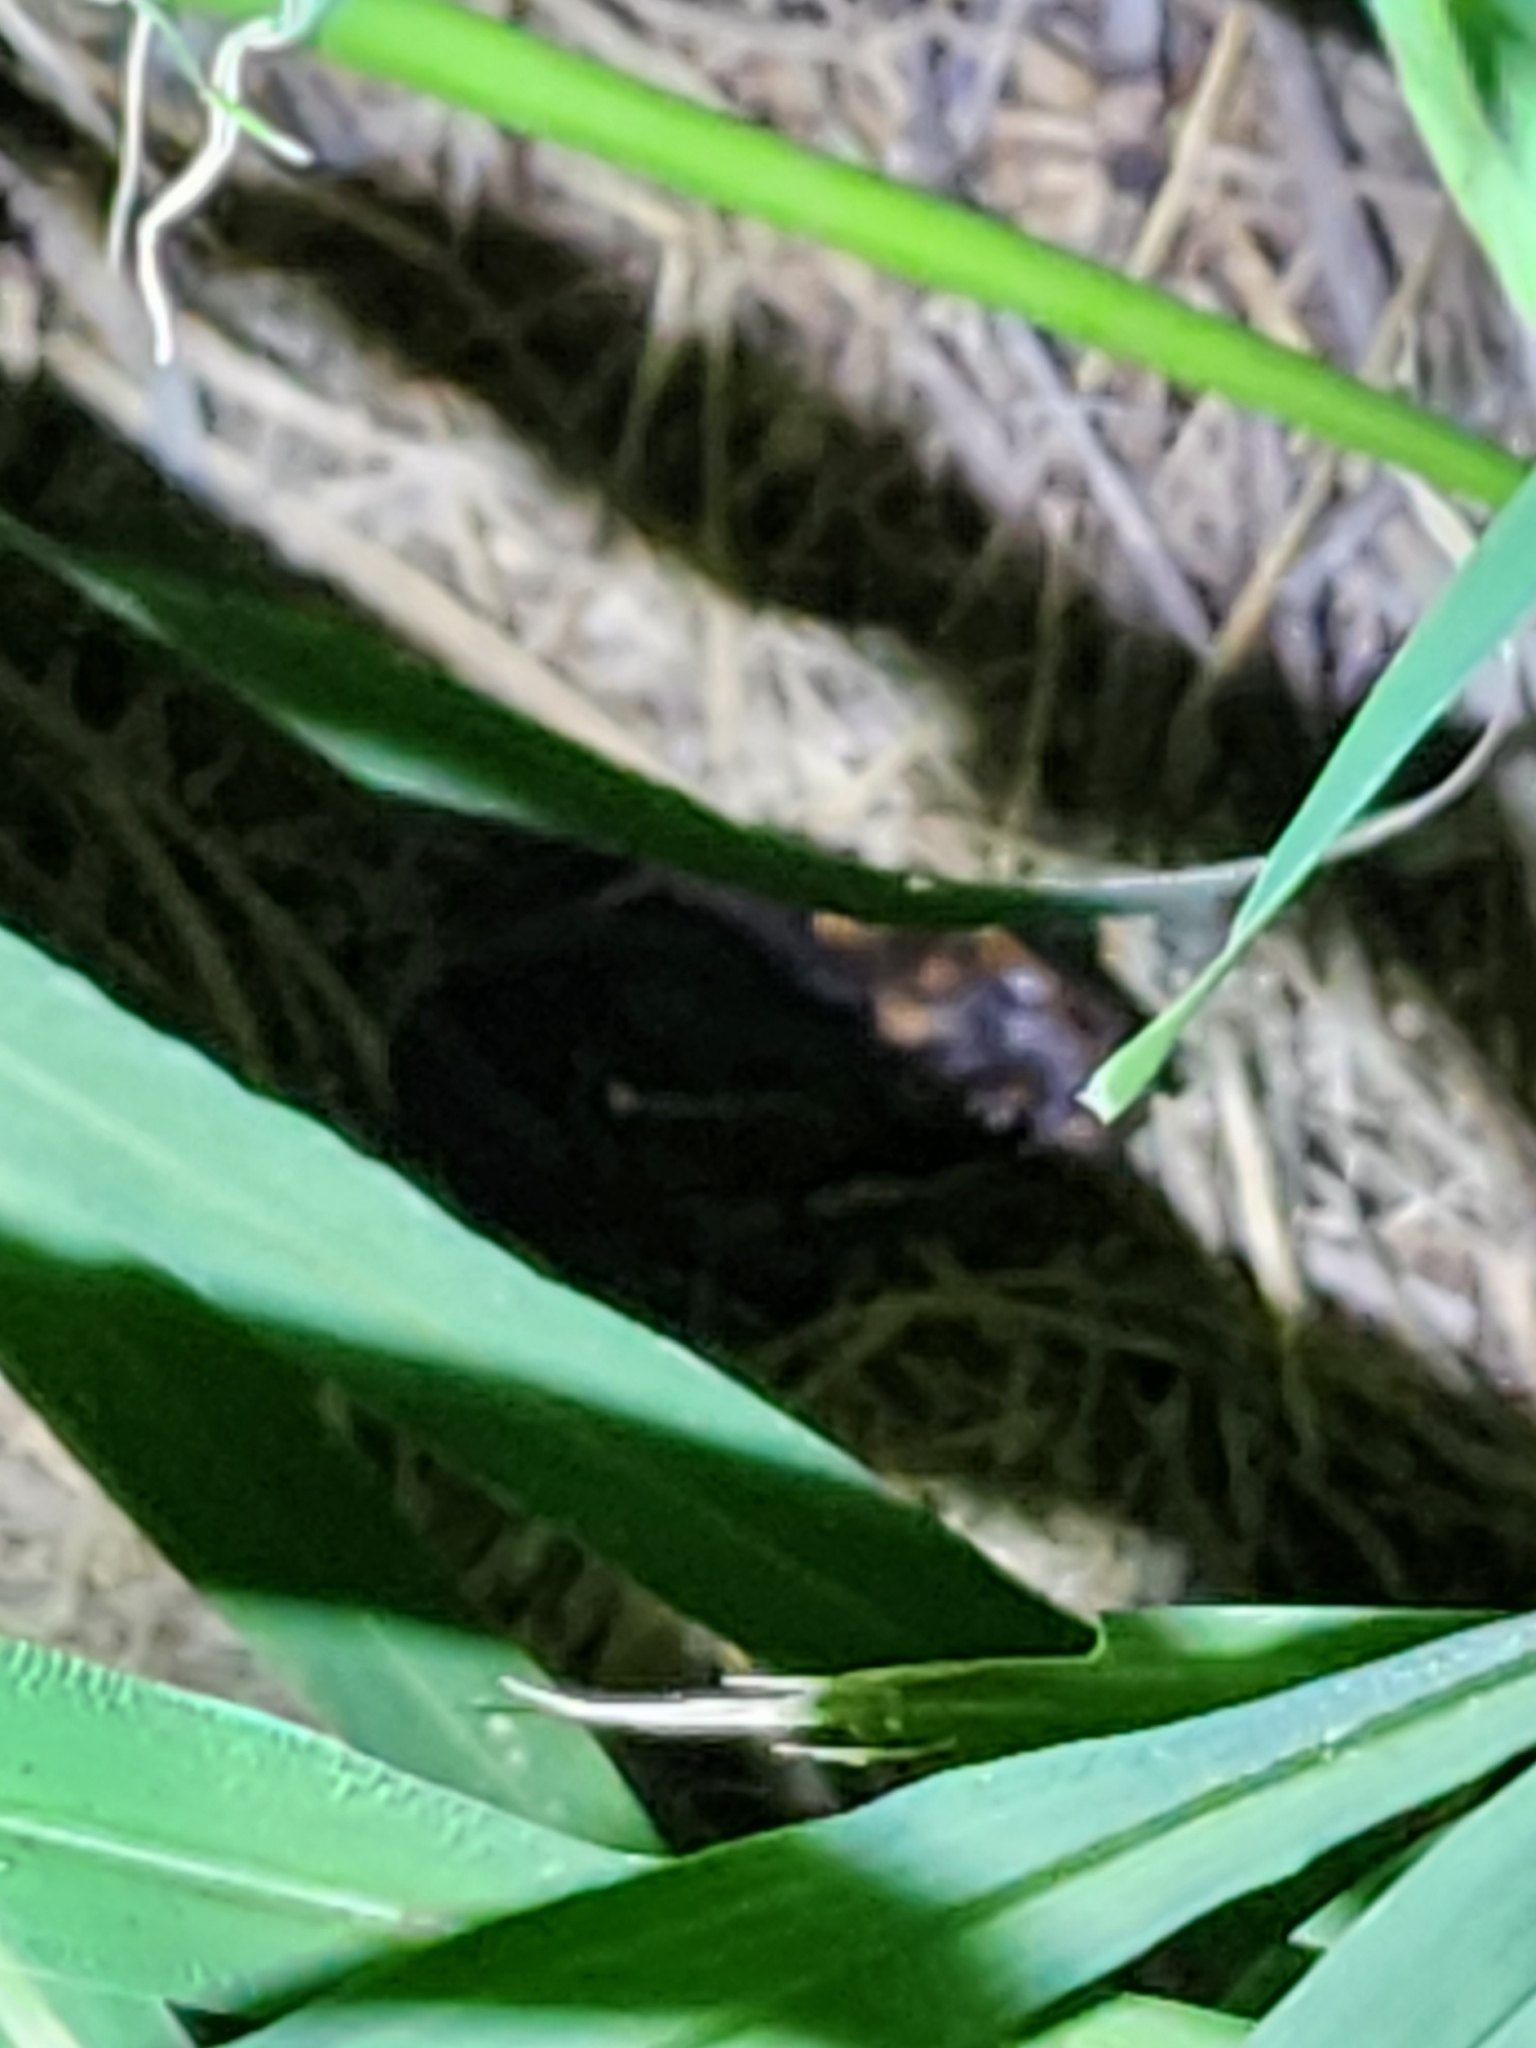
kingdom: Animalia
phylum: Chordata
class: Amphibia
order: Anura
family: Limnodynastidae
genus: Limnodynastes
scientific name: Limnodynastes salmini
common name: Salmon-striped frog
